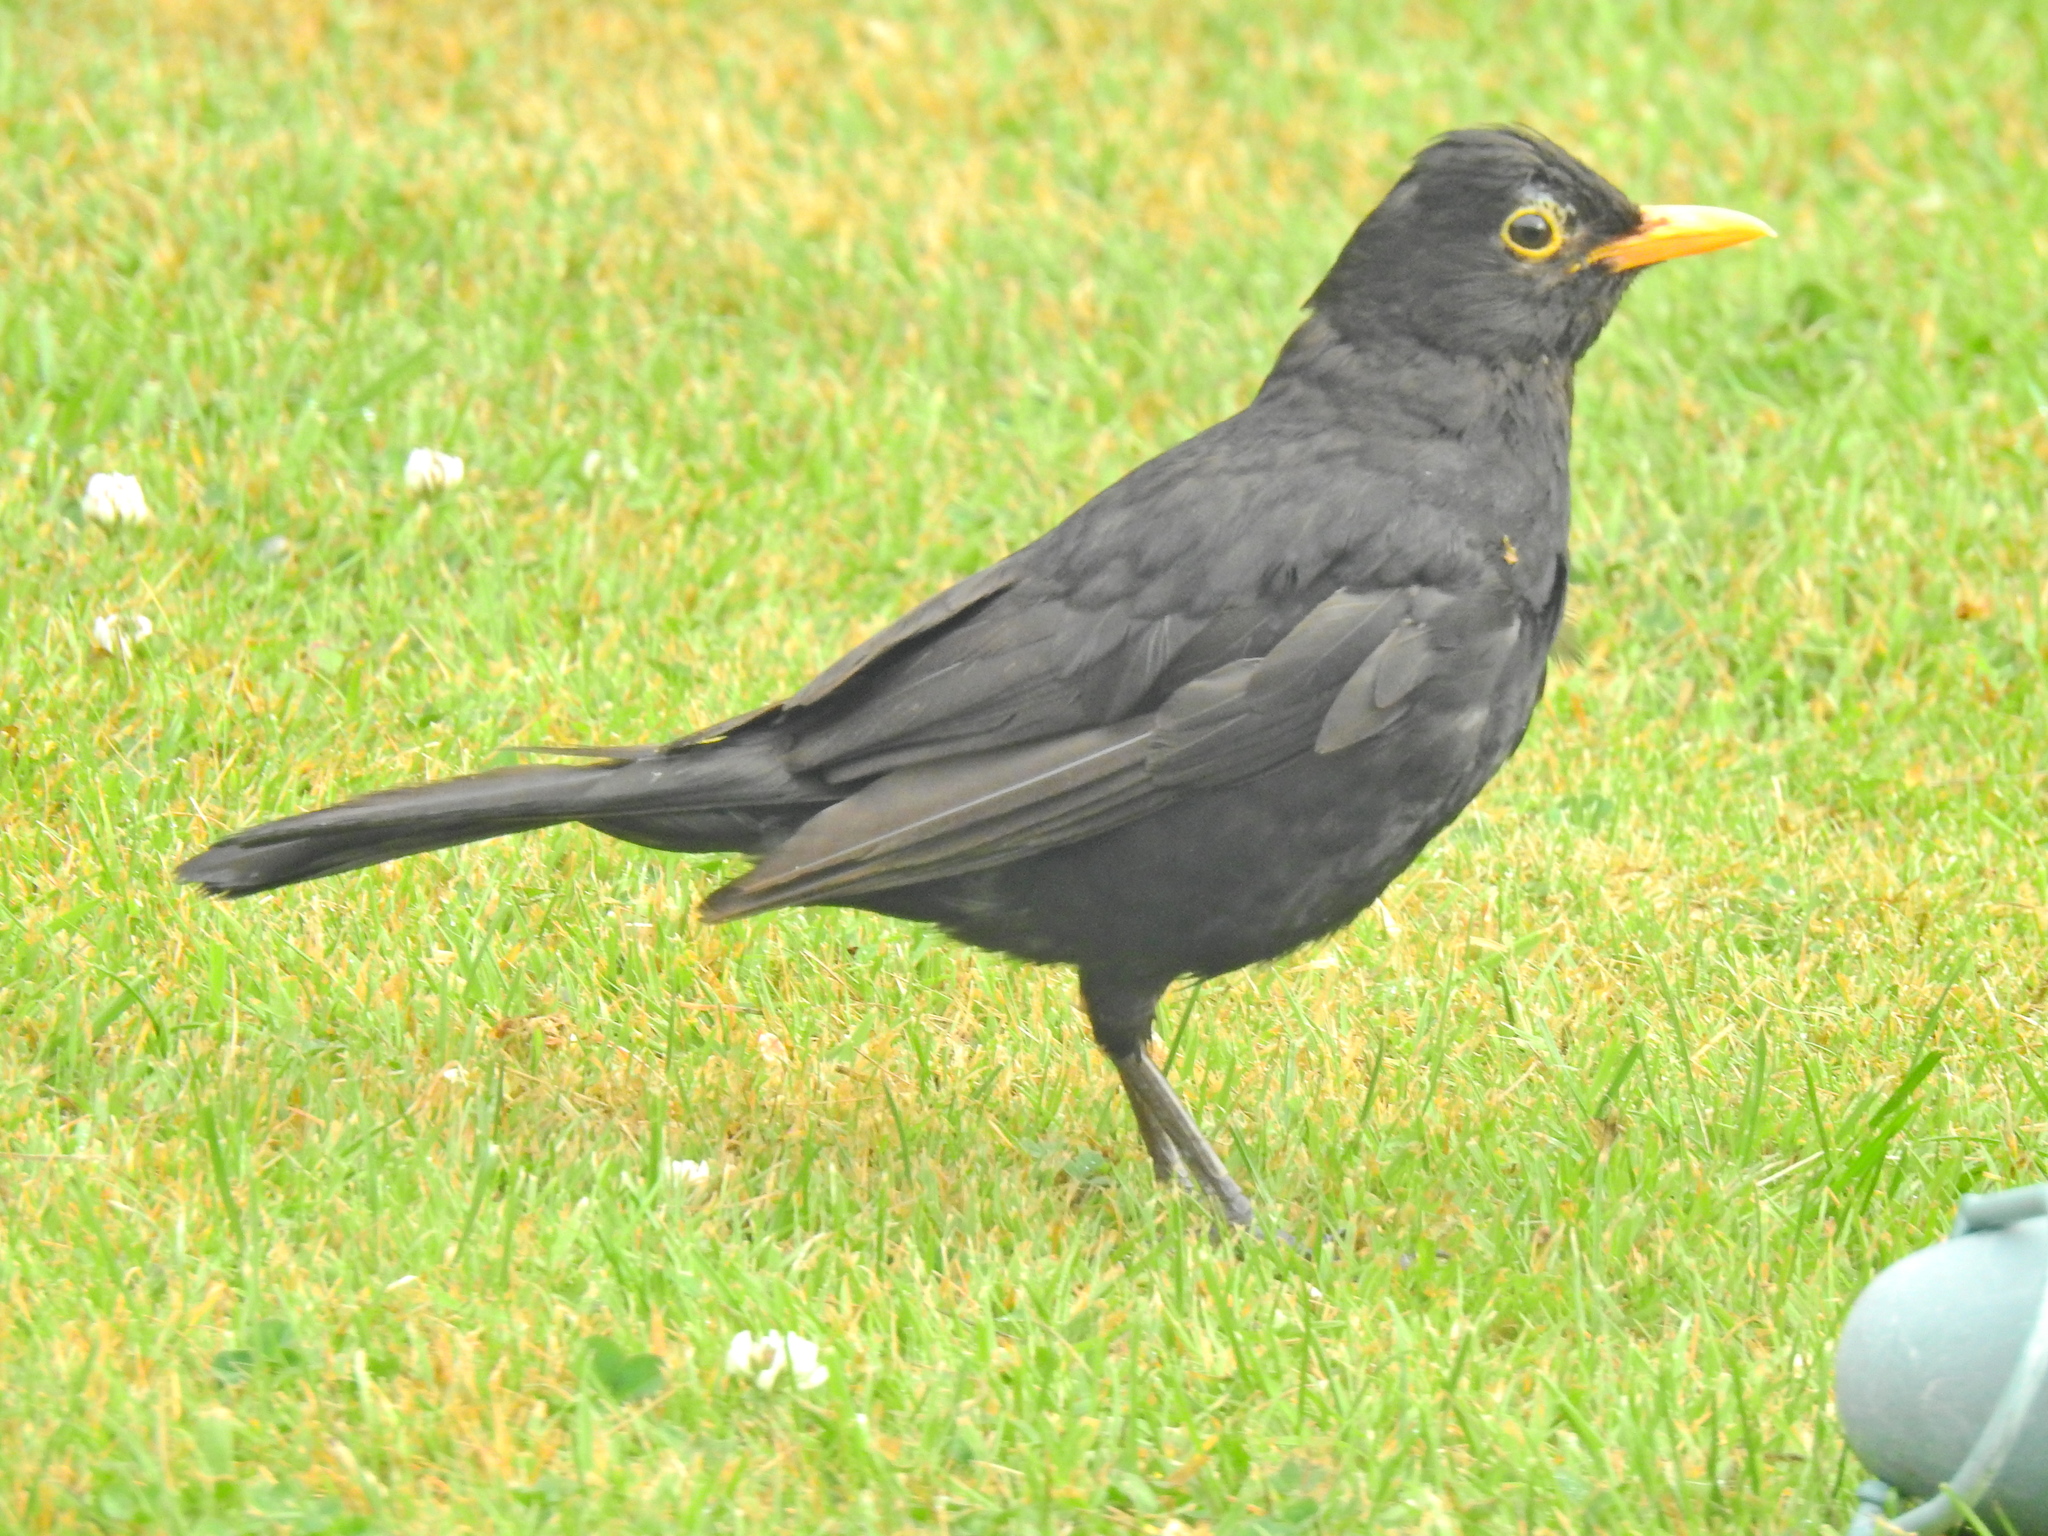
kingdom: Animalia
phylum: Chordata
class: Aves
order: Passeriformes
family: Turdidae
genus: Turdus
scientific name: Turdus merula
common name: Common blackbird
